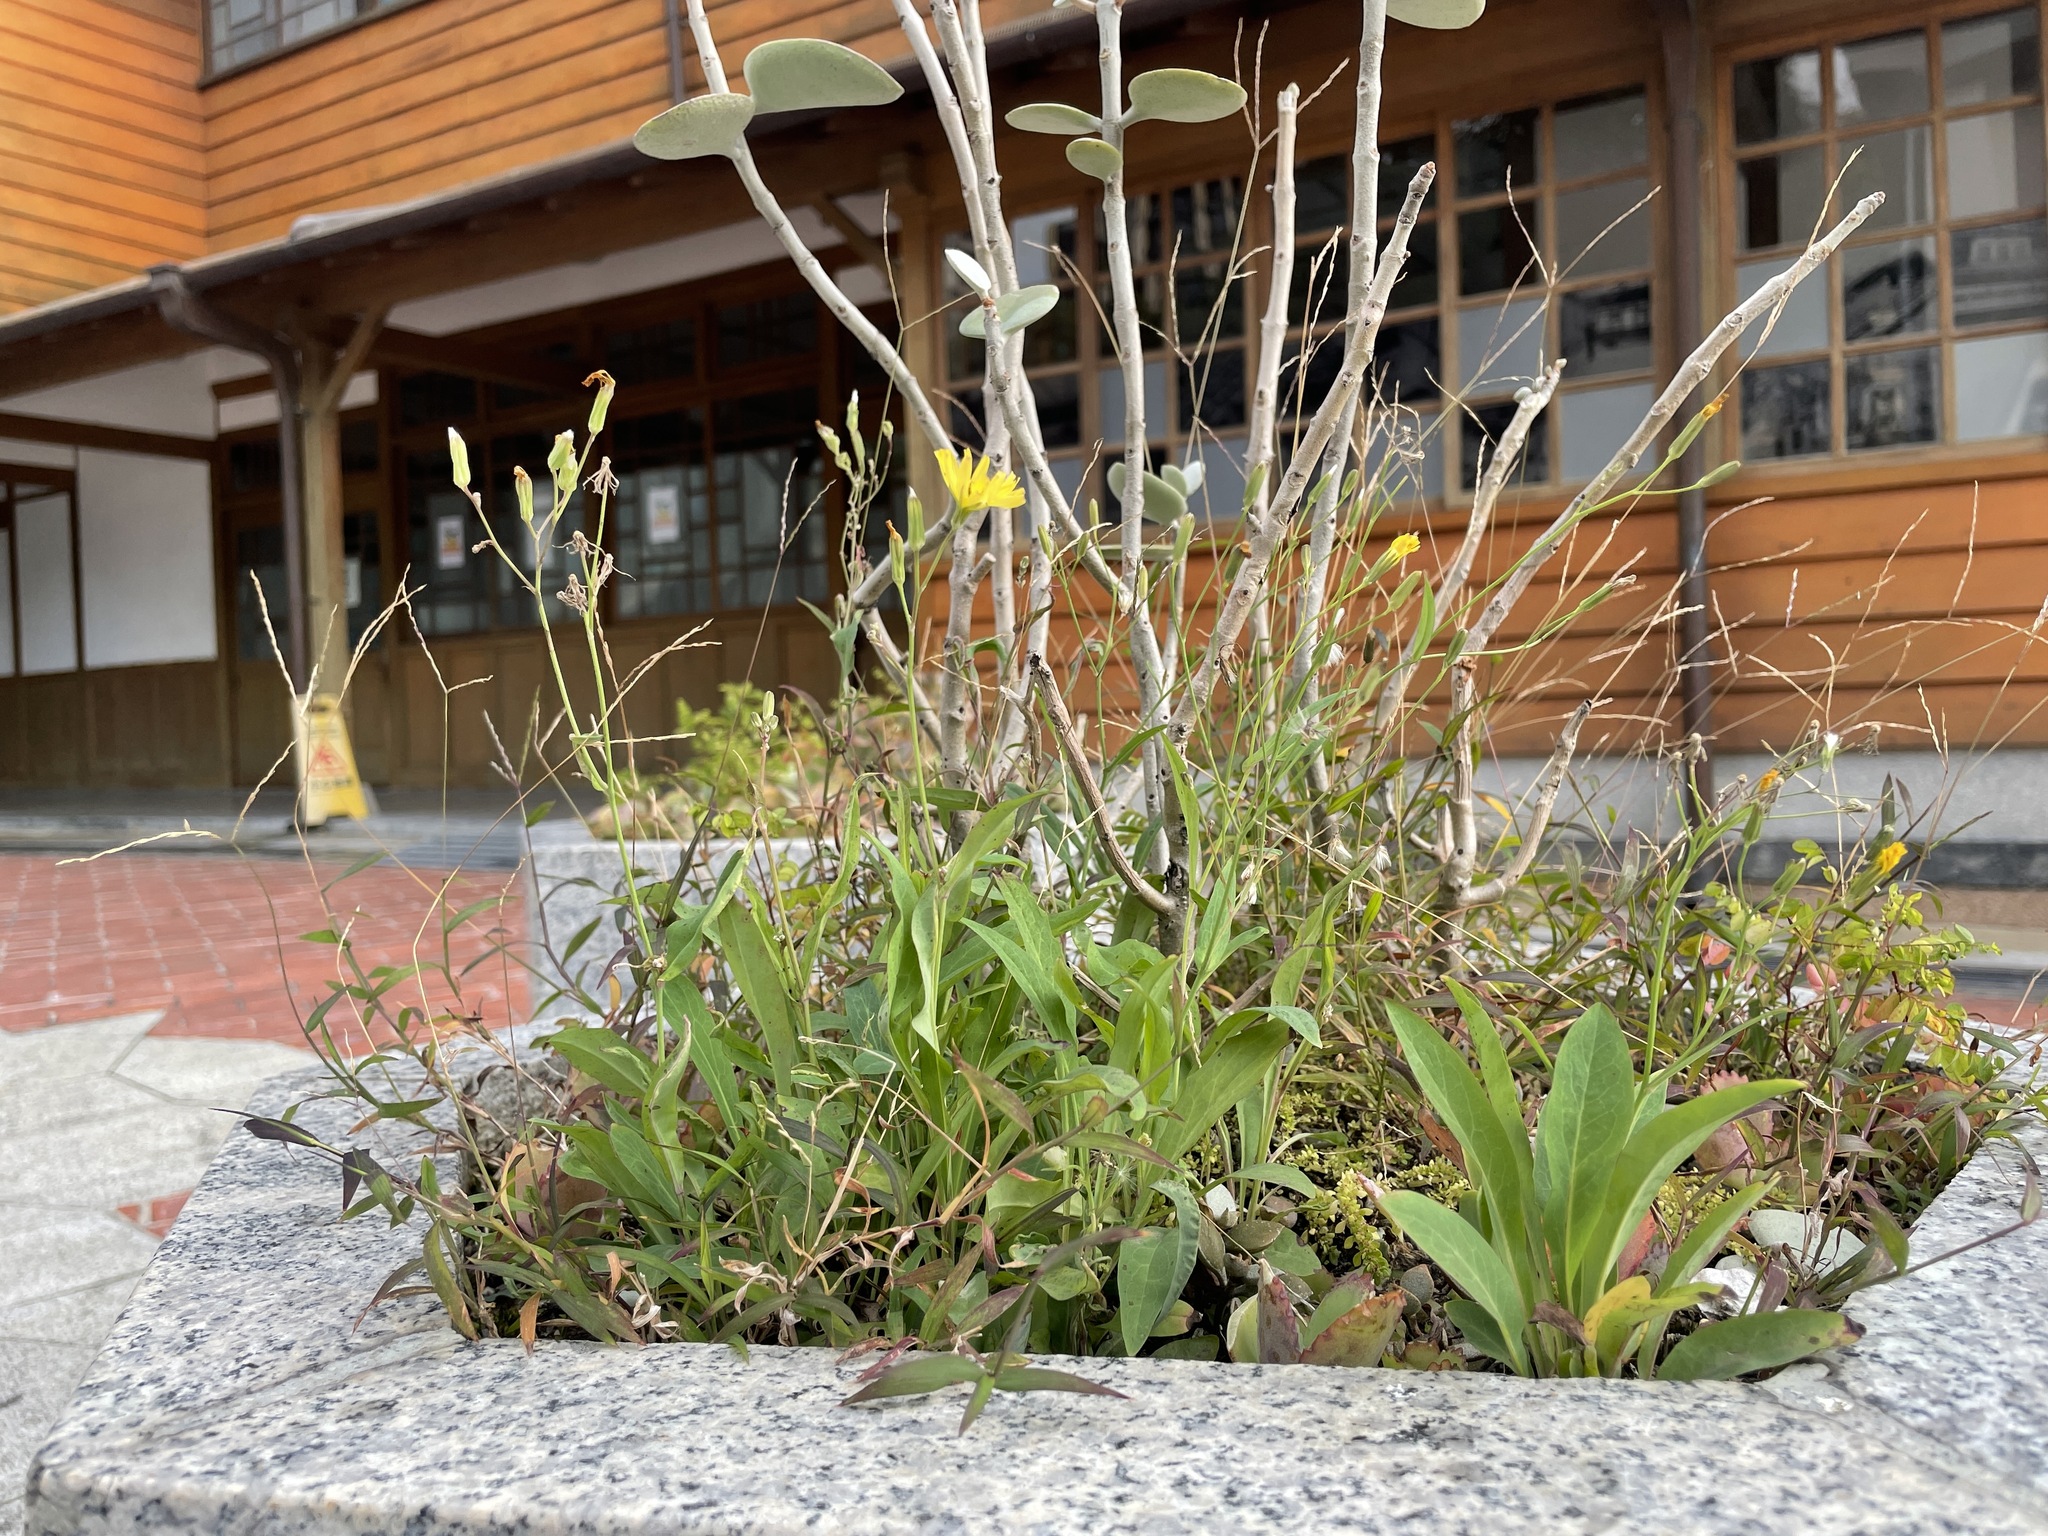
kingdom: Plantae
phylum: Tracheophyta
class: Magnoliopsida
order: Asterales
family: Asteraceae
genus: Ixeris
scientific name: Ixeris chinensis
